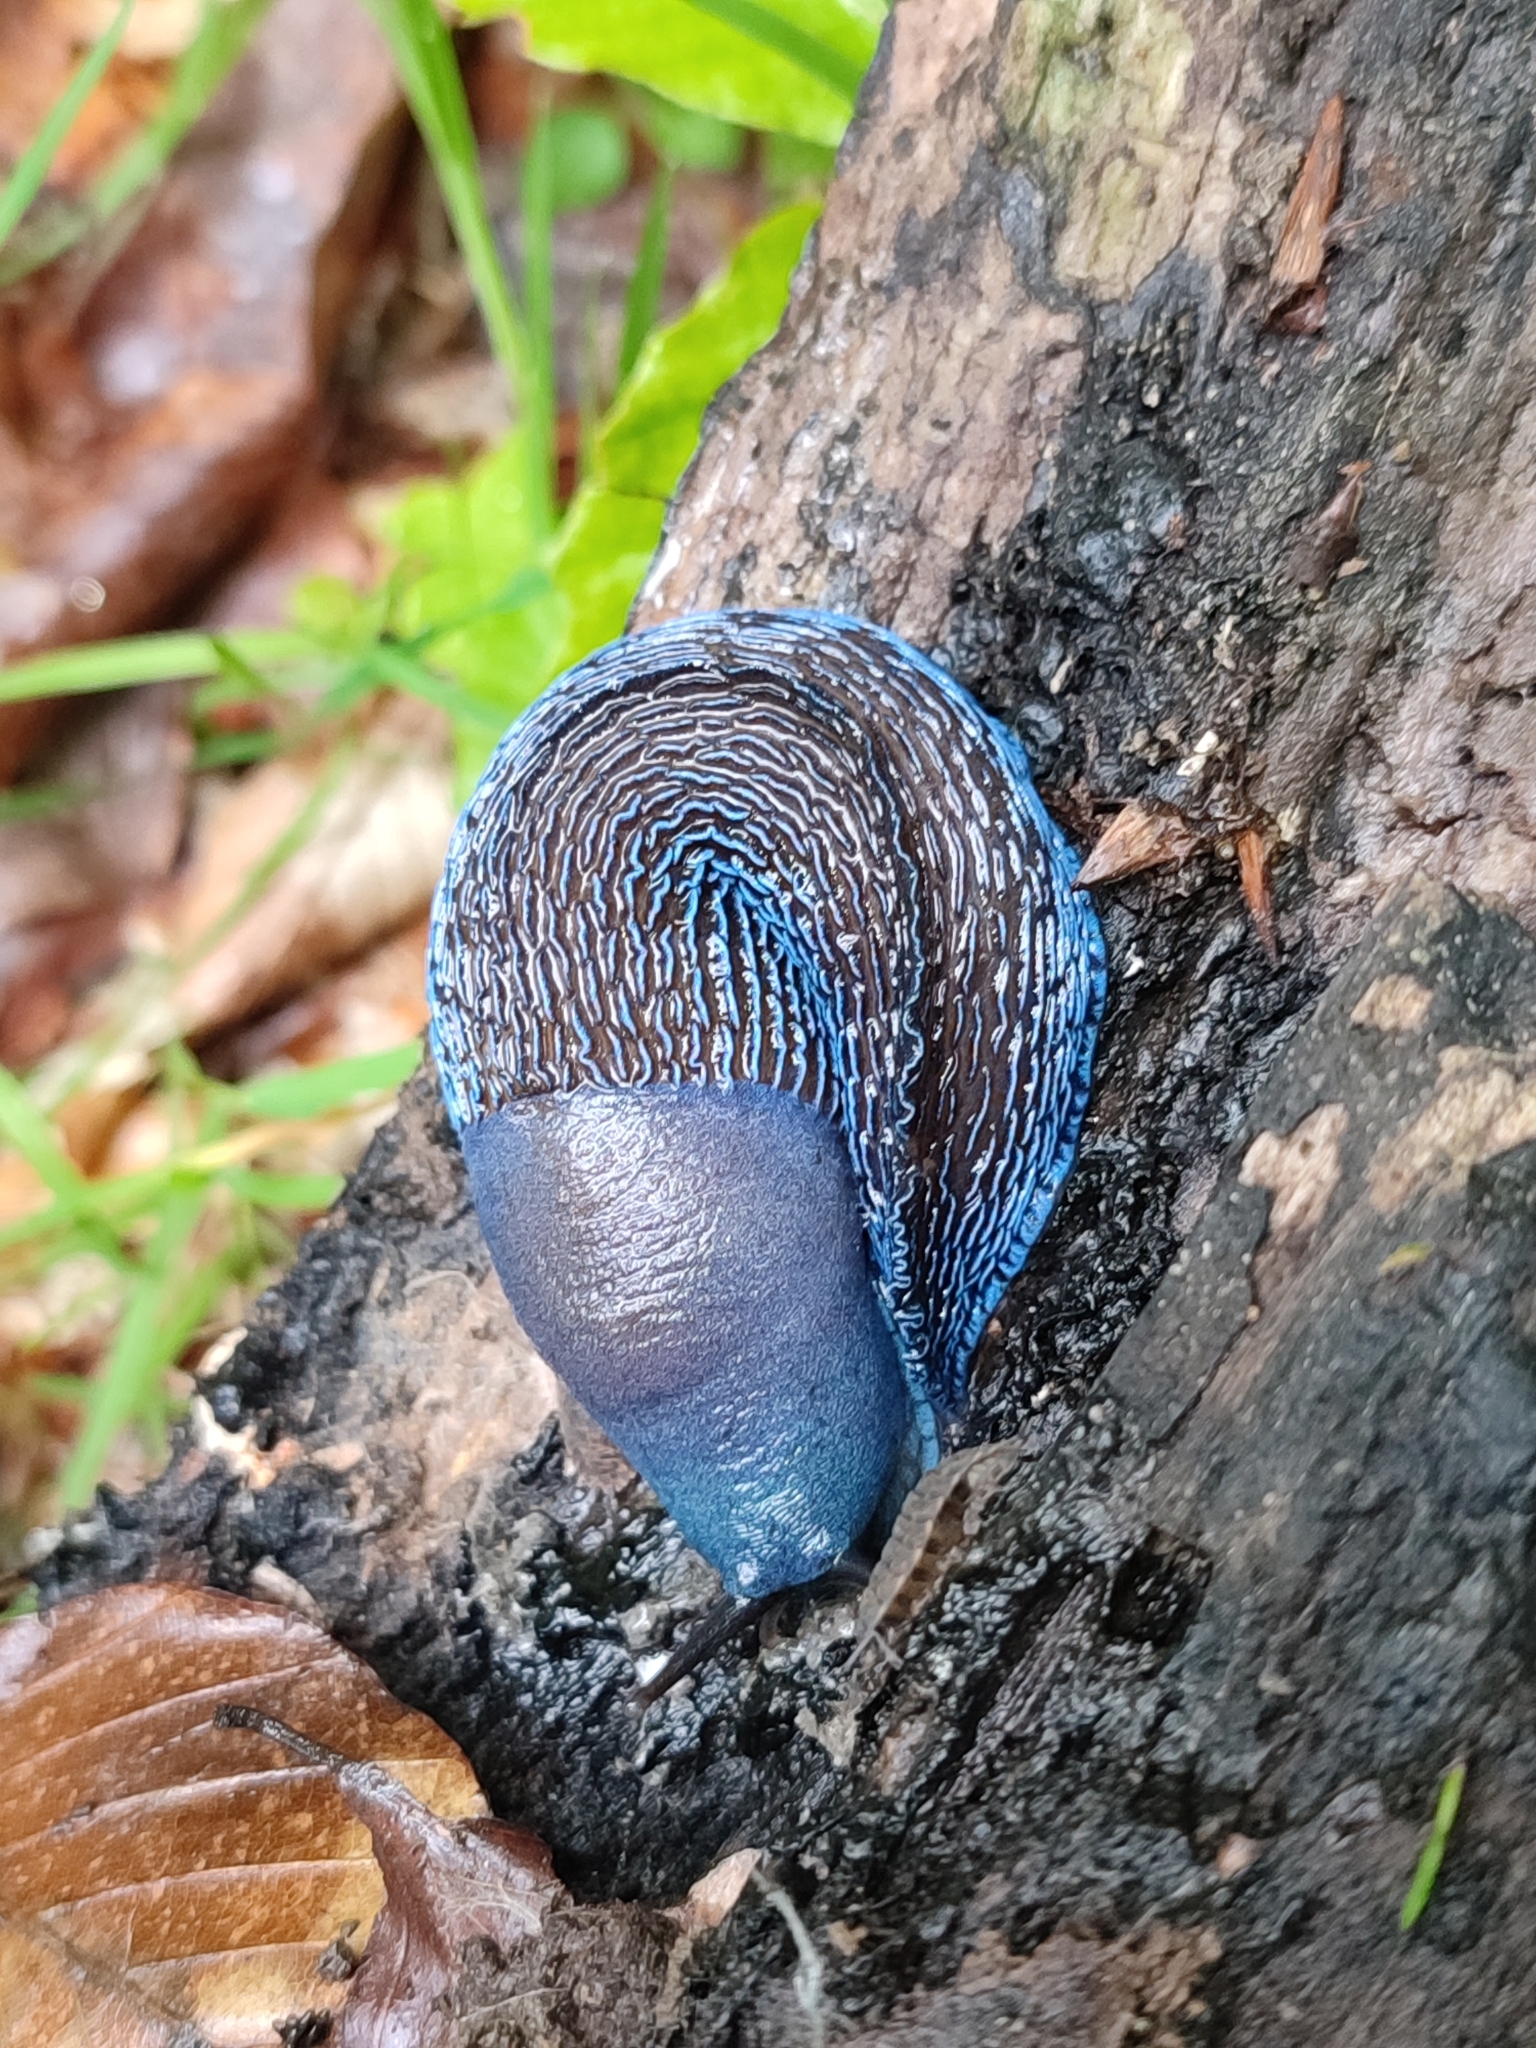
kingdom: Animalia
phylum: Mollusca
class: Gastropoda
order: Stylommatophora
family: Limacidae
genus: Bielzia
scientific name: Bielzia coerulans
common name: Carpathian blue slug
